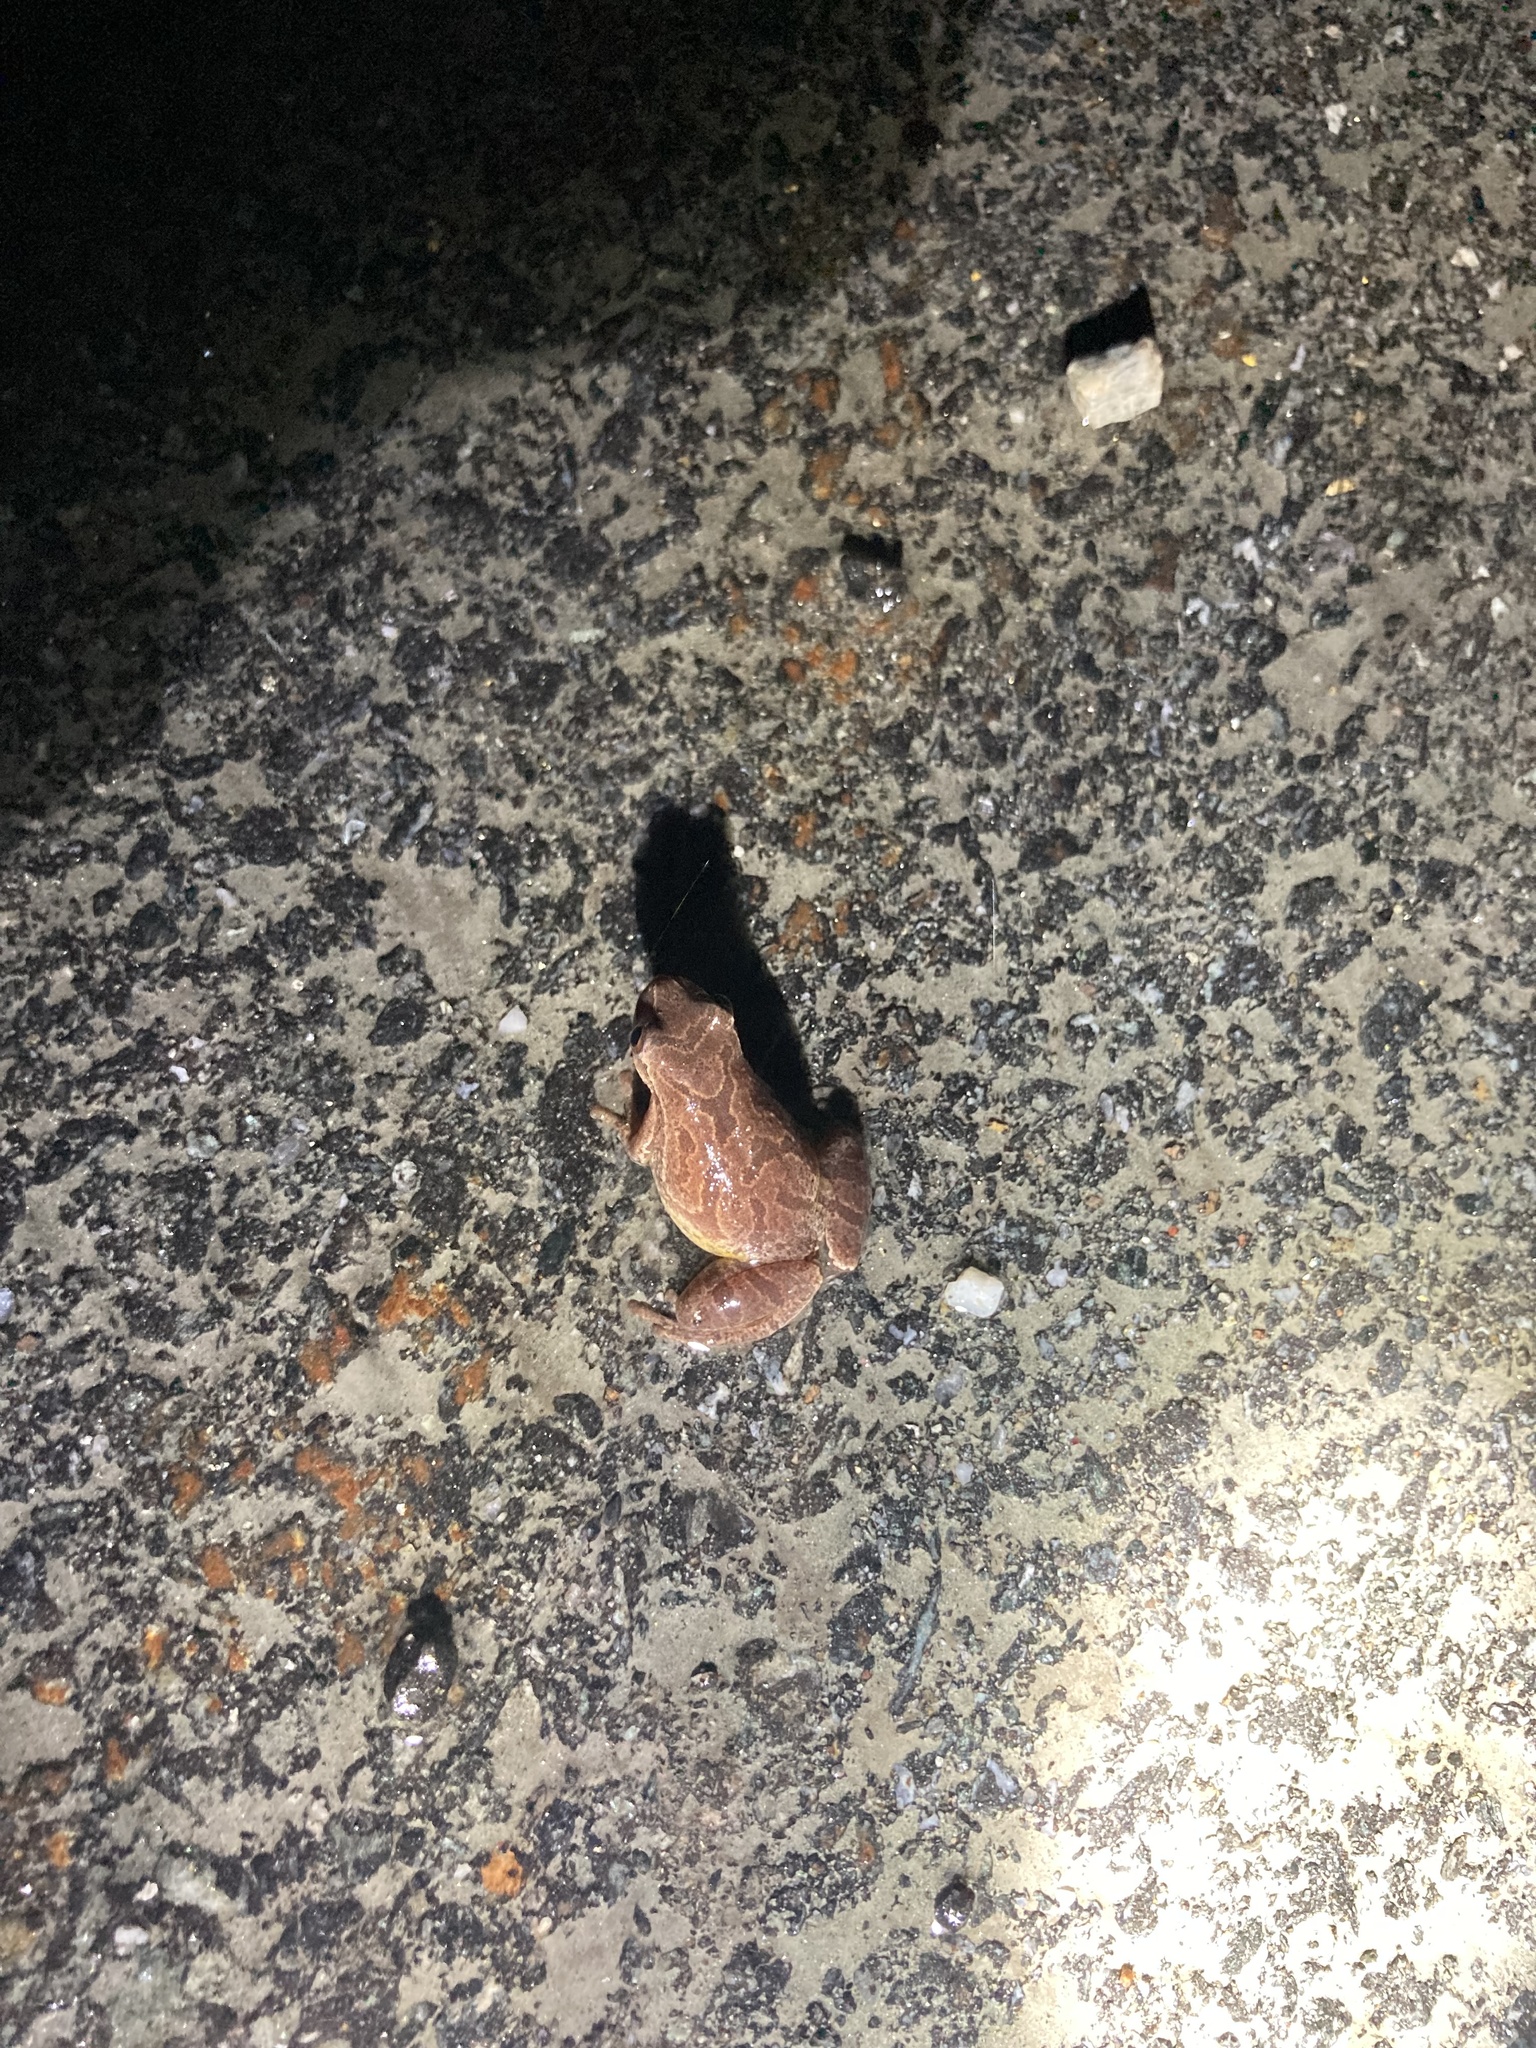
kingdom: Animalia
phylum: Chordata
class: Amphibia
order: Anura
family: Hylidae
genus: Pseudacris
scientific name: Pseudacris crucifer
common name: Spring peeper
